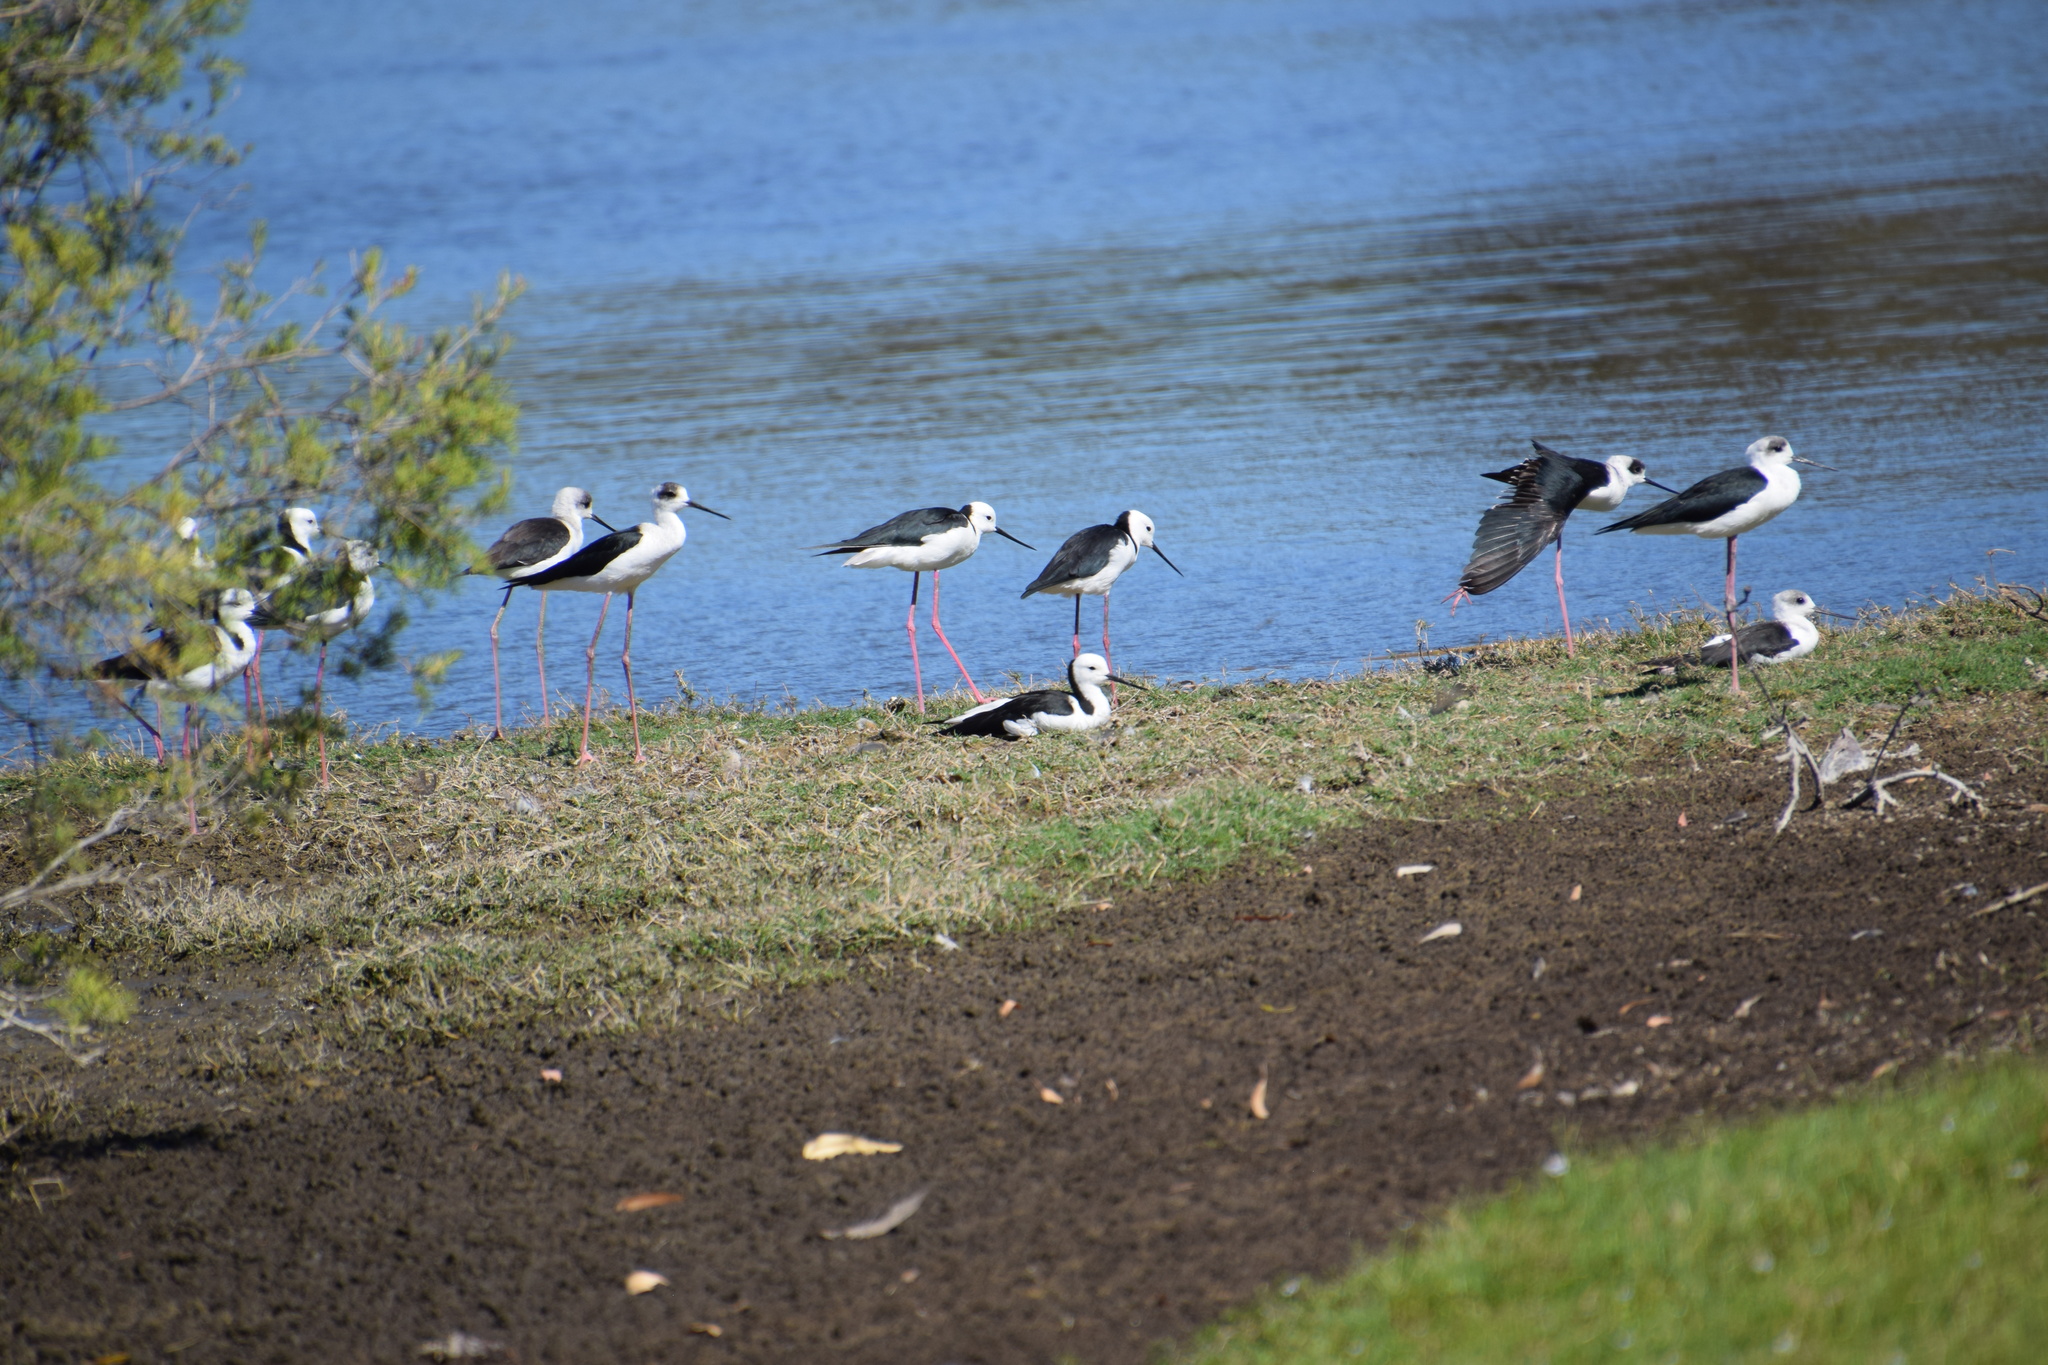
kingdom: Animalia
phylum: Chordata
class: Aves
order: Charadriiformes
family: Recurvirostridae
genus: Himantopus
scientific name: Himantopus leucocephalus
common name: White-headed stilt
